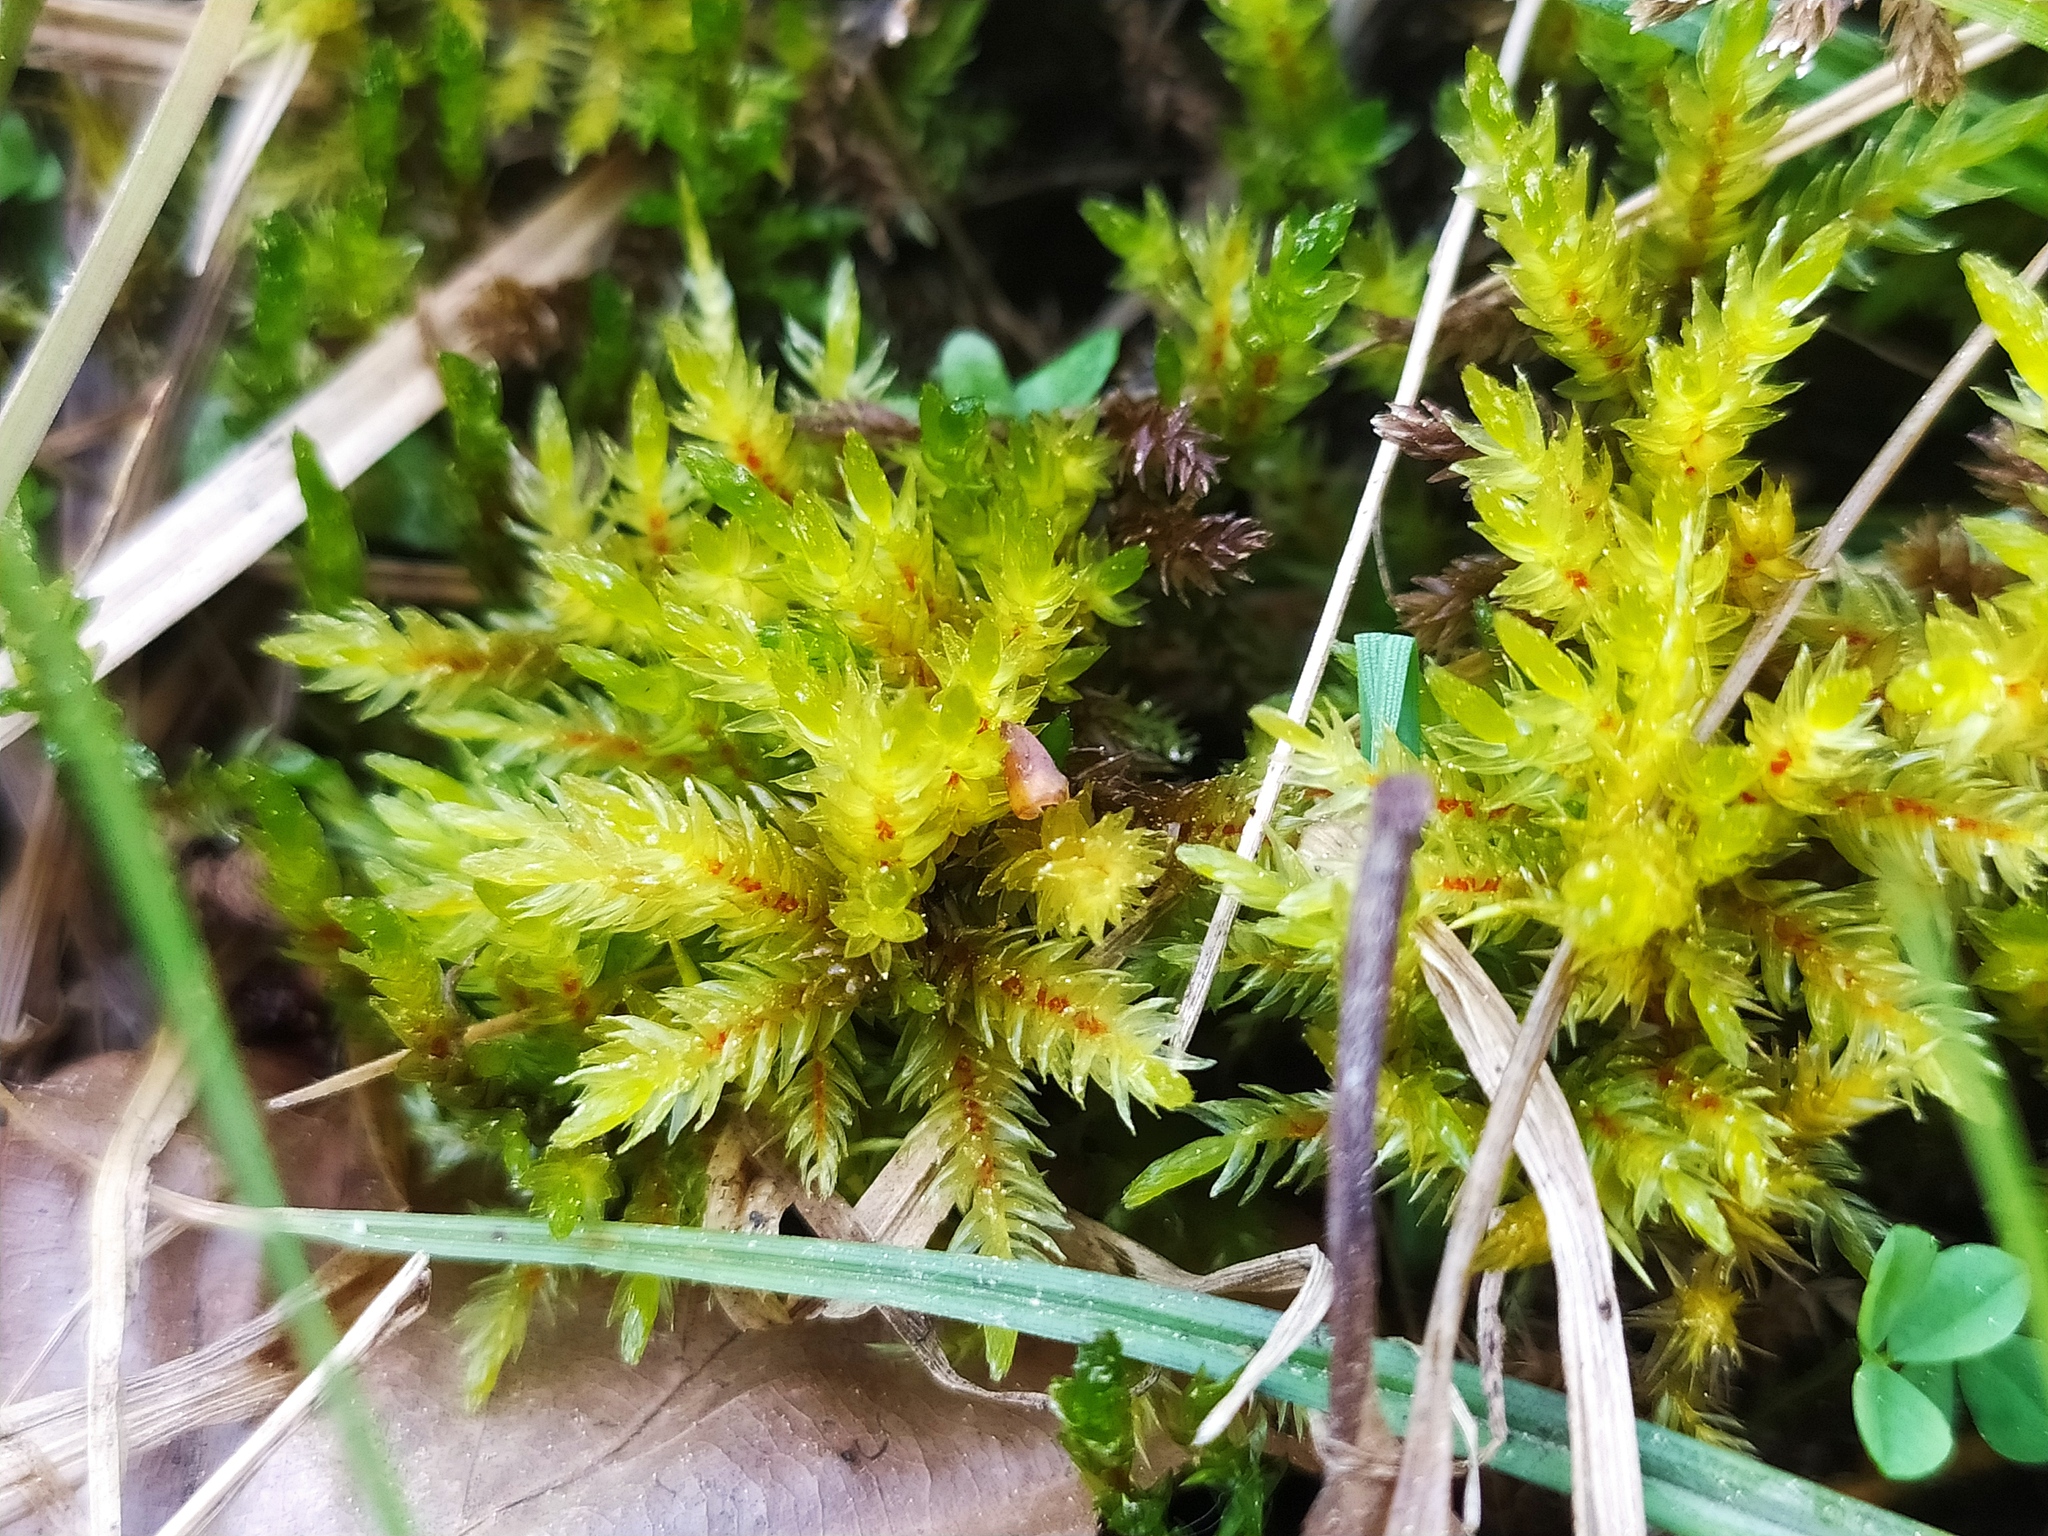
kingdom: Plantae
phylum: Bryophyta
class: Bryopsida
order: Hypnales
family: Climaciaceae
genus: Climacium
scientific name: Climacium dendroides
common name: Northern tree moss
